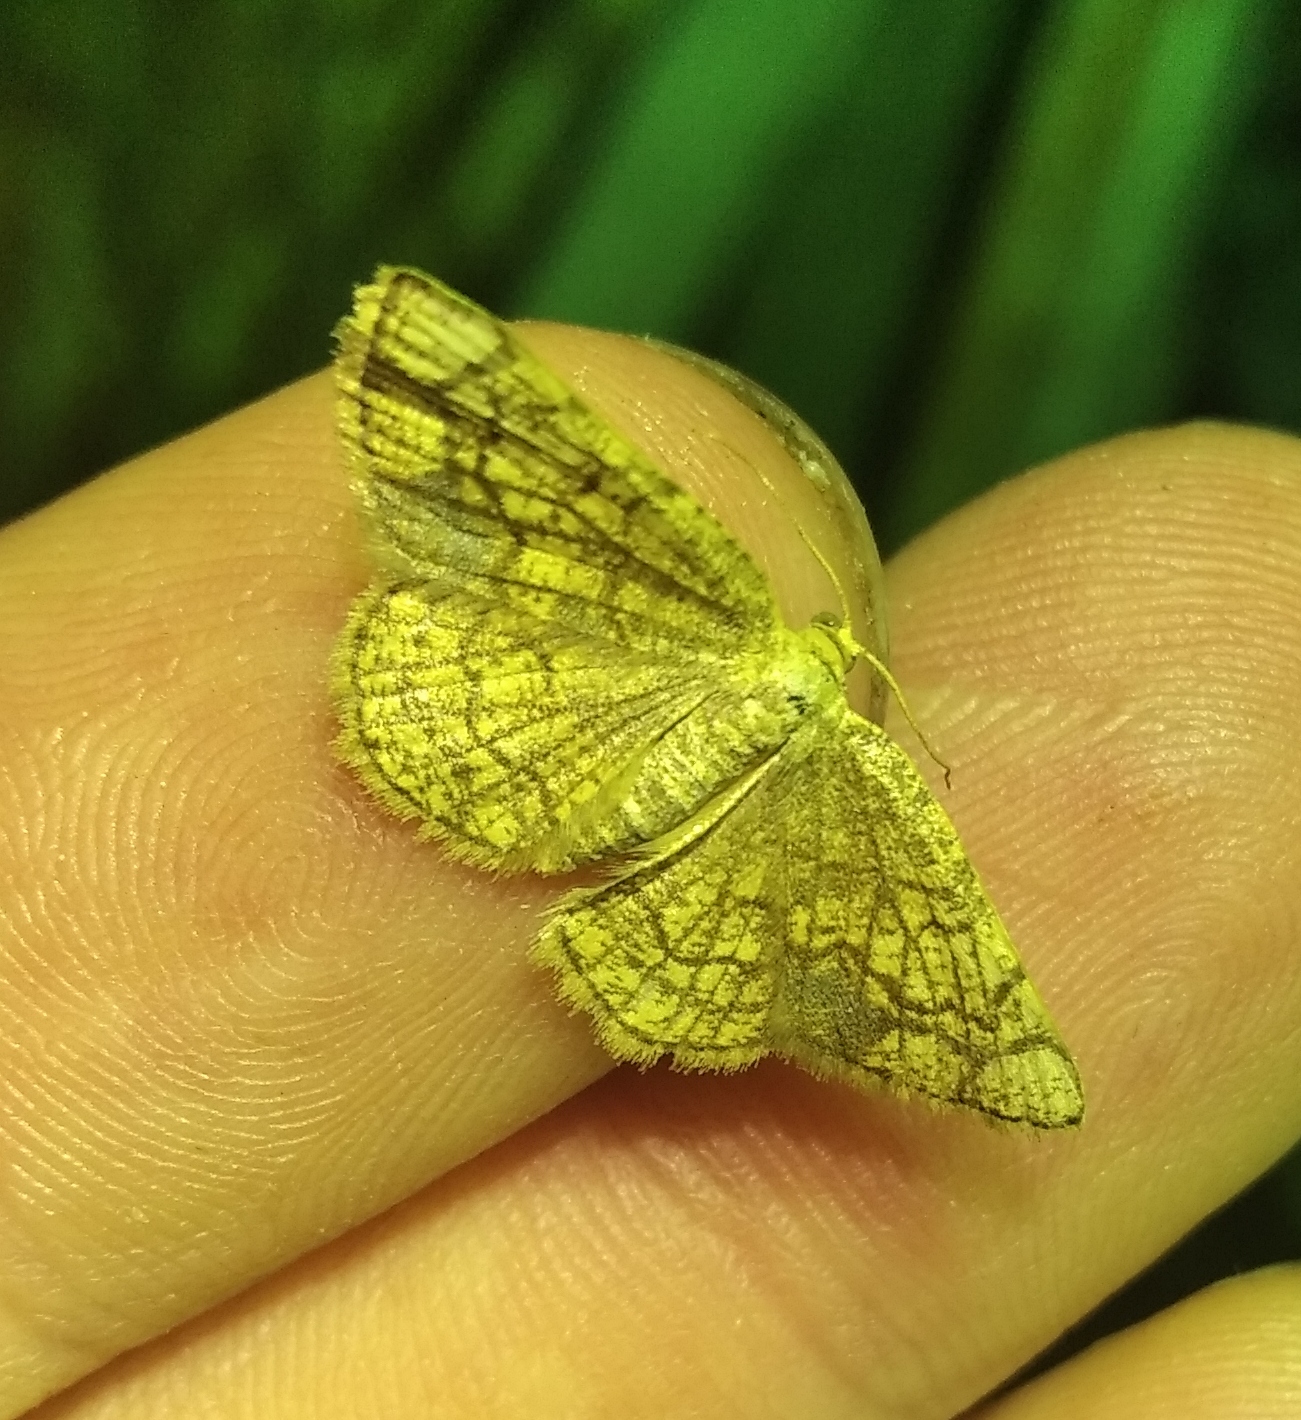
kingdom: Animalia
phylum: Arthropoda
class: Insecta
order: Lepidoptera
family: Geometridae
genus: Stegania
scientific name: Stegania dilectaria
